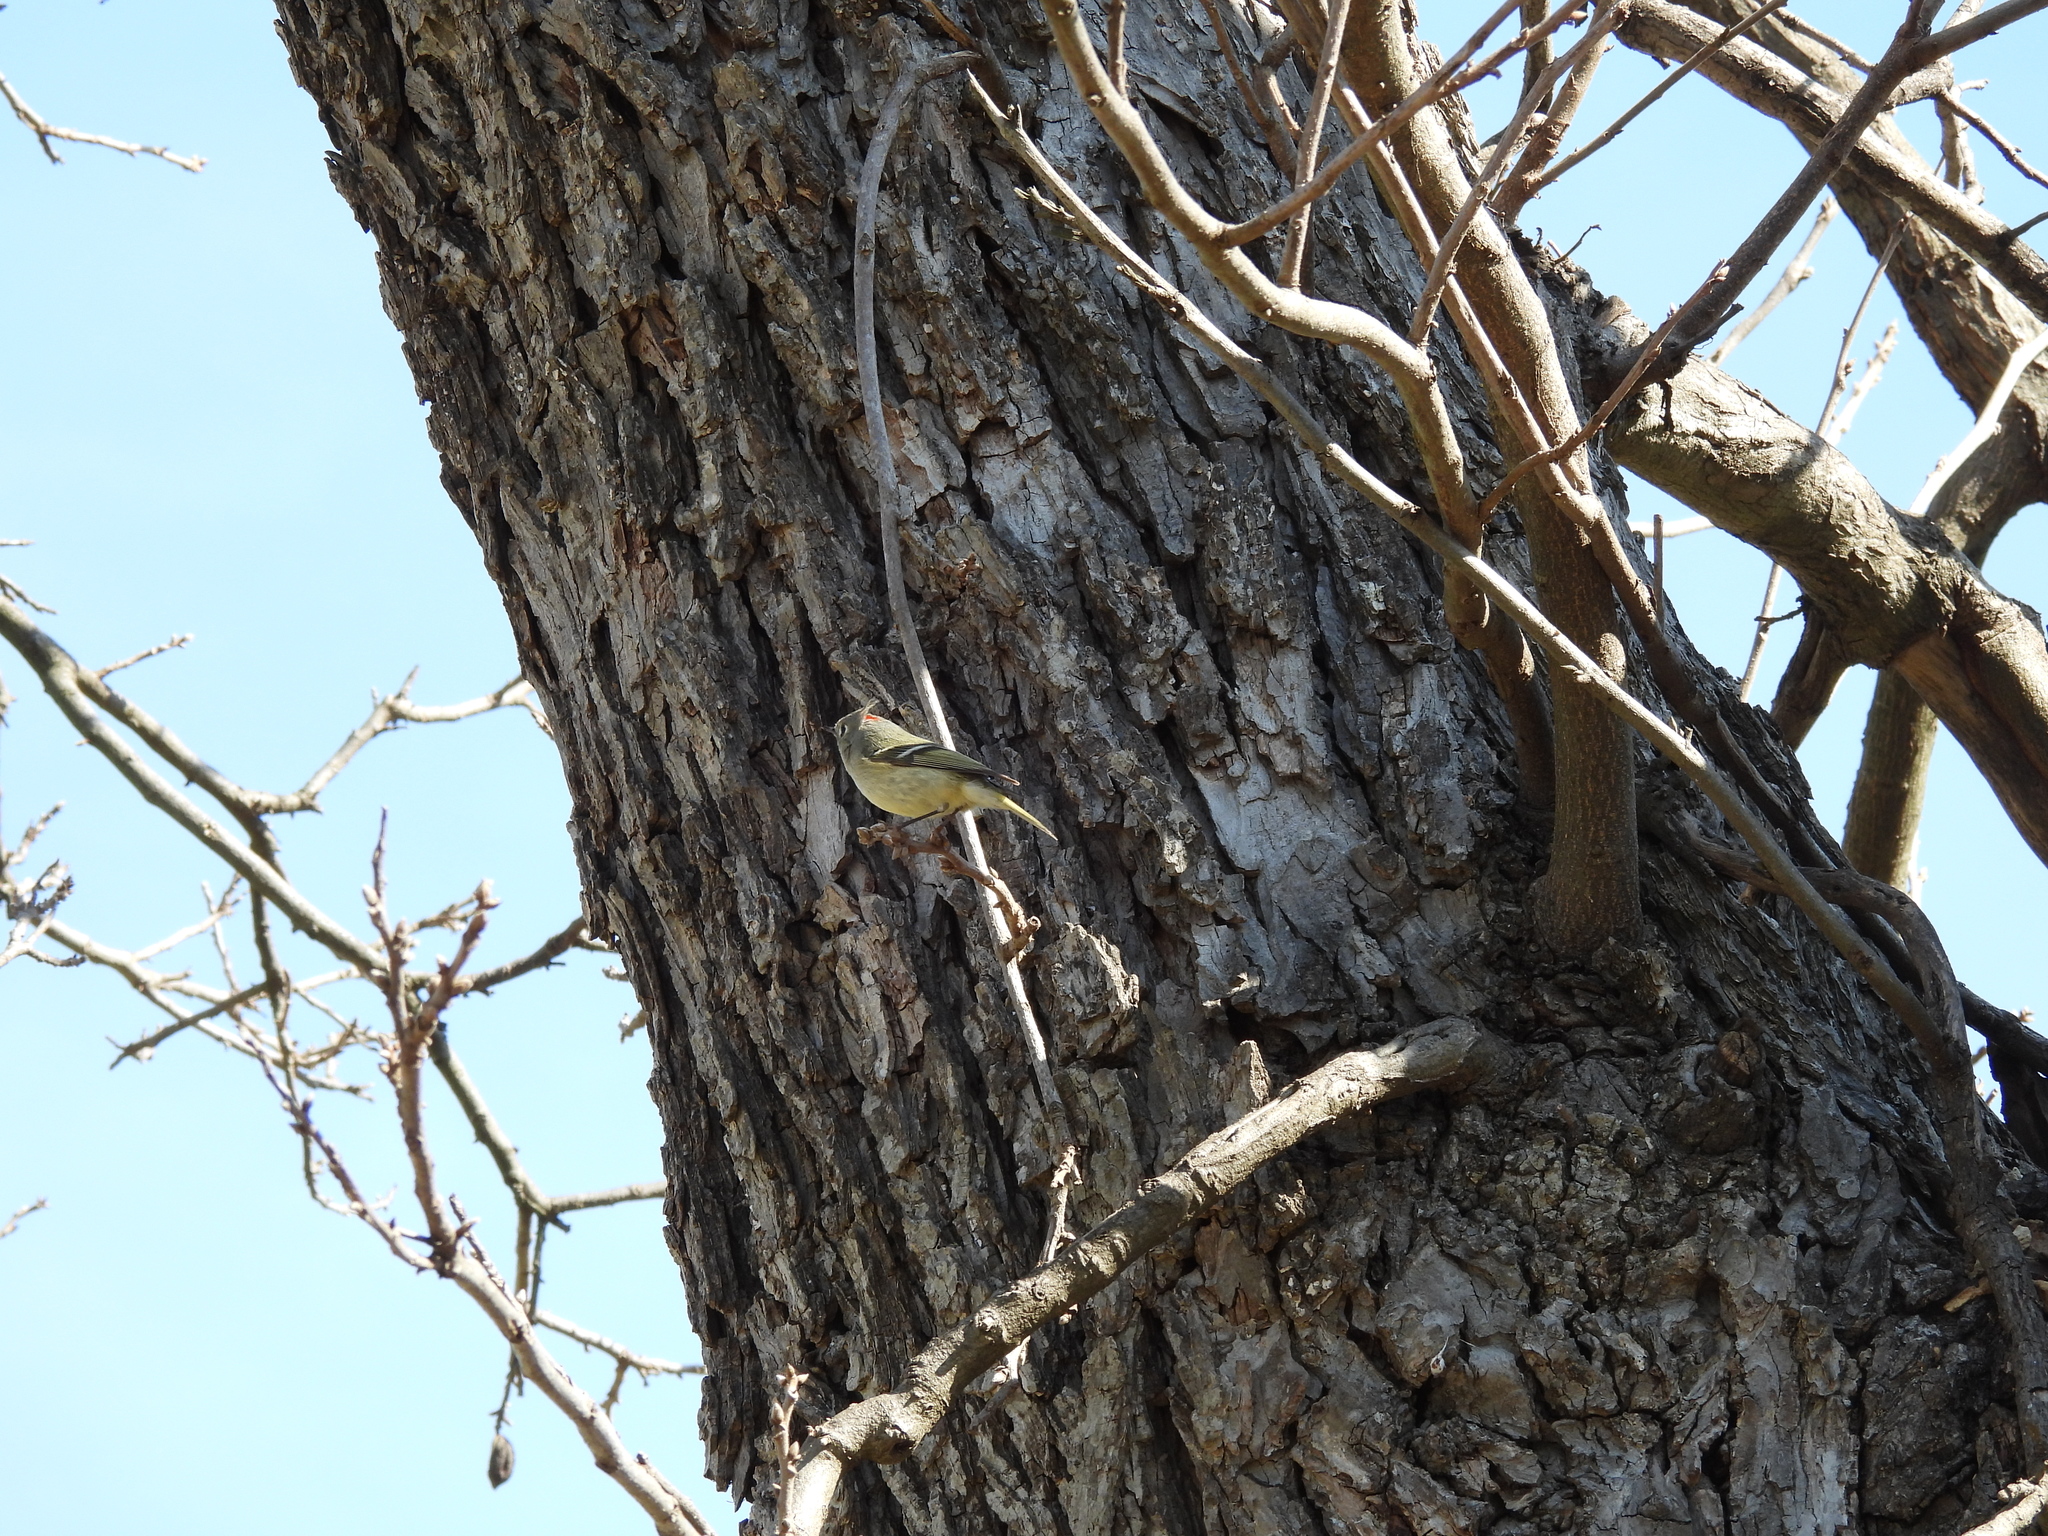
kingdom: Animalia
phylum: Chordata
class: Aves
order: Passeriformes
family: Regulidae
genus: Regulus
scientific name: Regulus calendula
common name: Ruby-crowned kinglet
